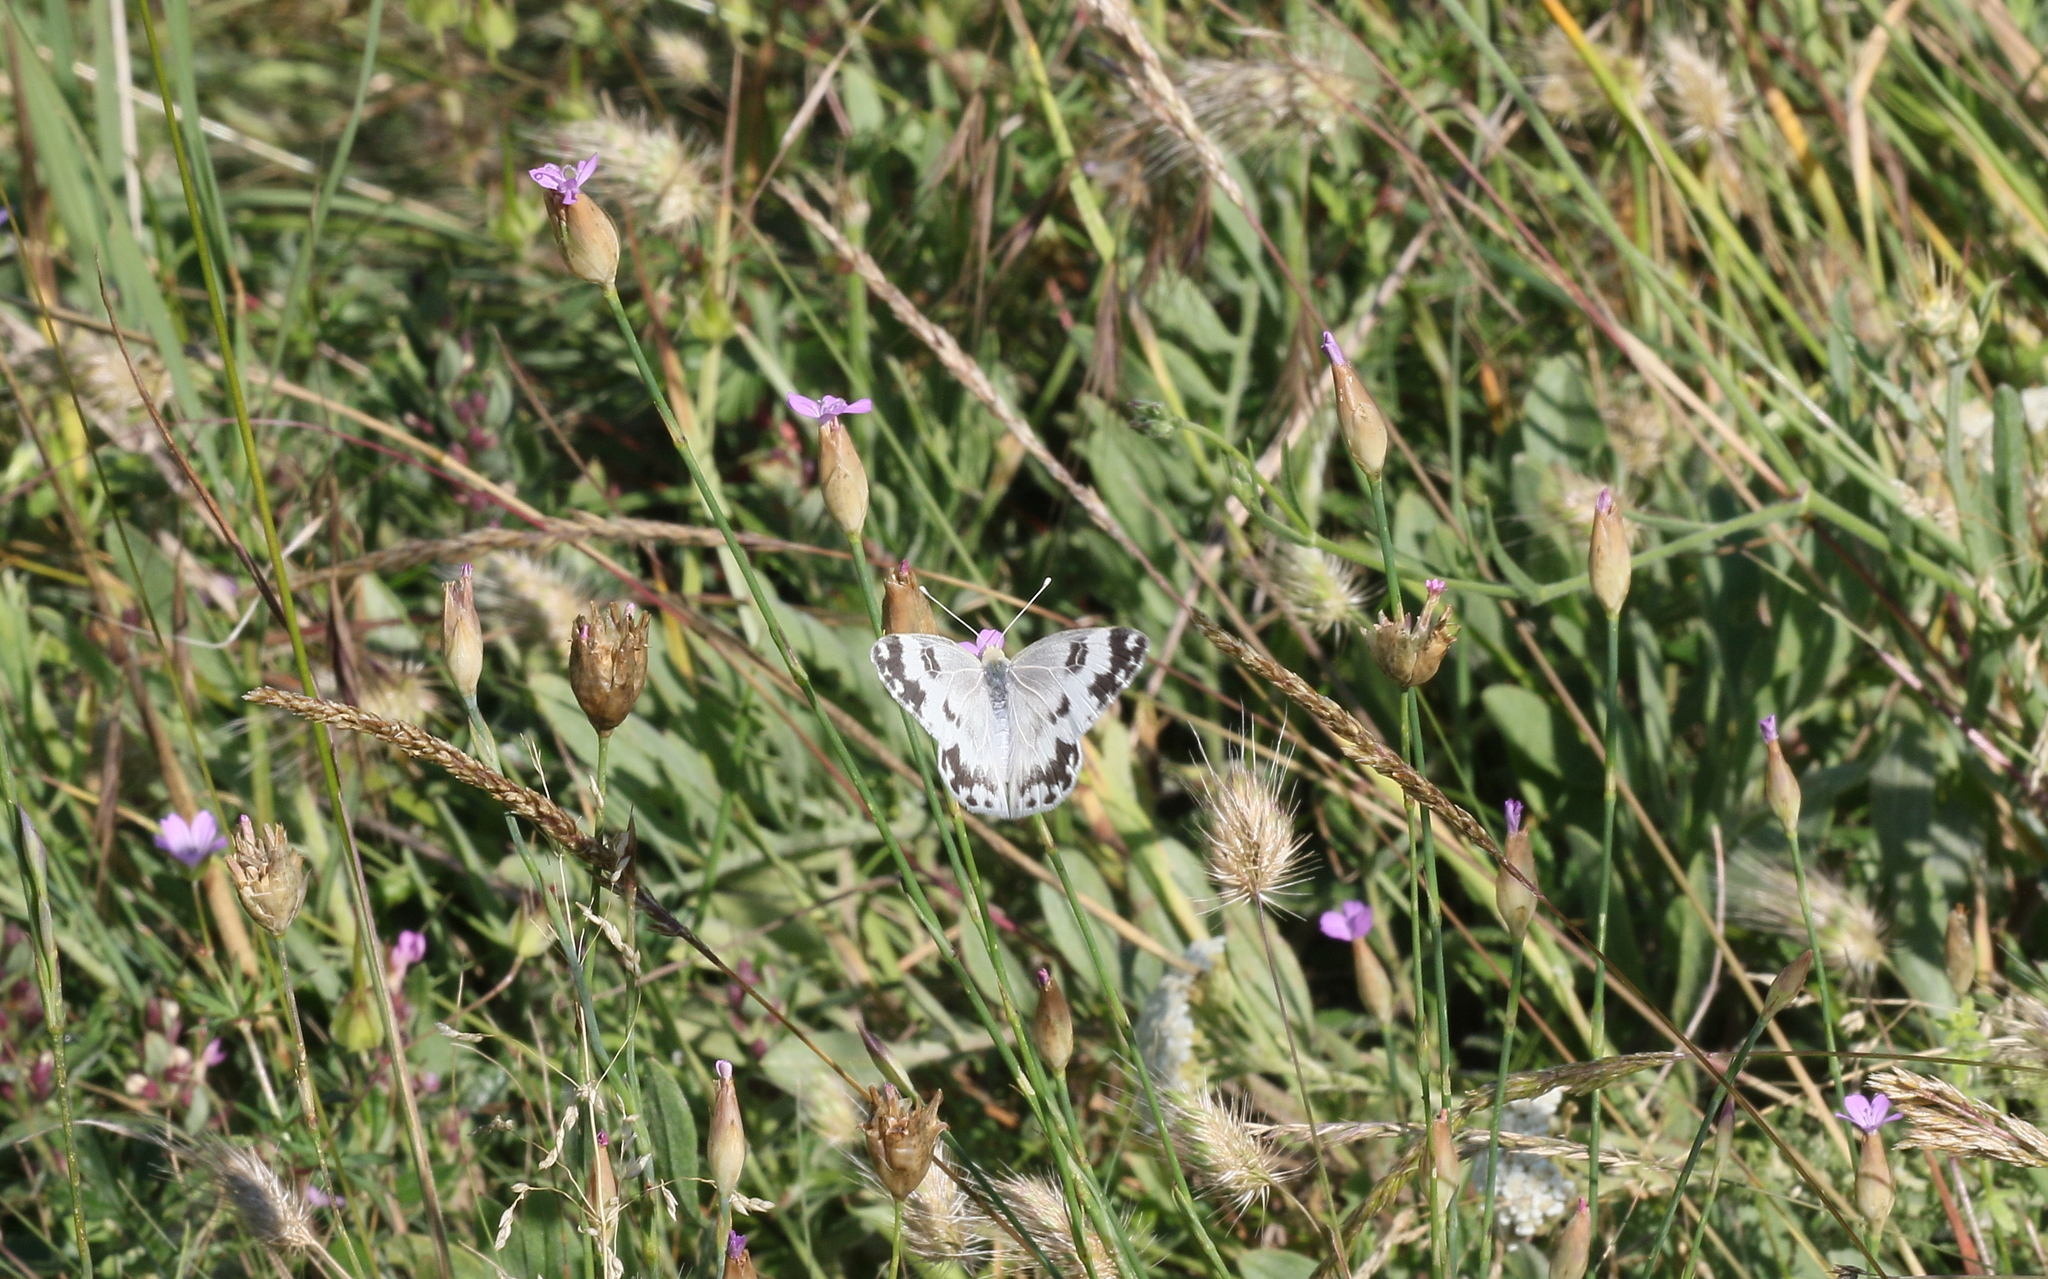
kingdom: Animalia
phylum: Arthropoda
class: Insecta
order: Lepidoptera
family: Pieridae
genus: Pontia
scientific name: Pontia edusa
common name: Eastern bath white
